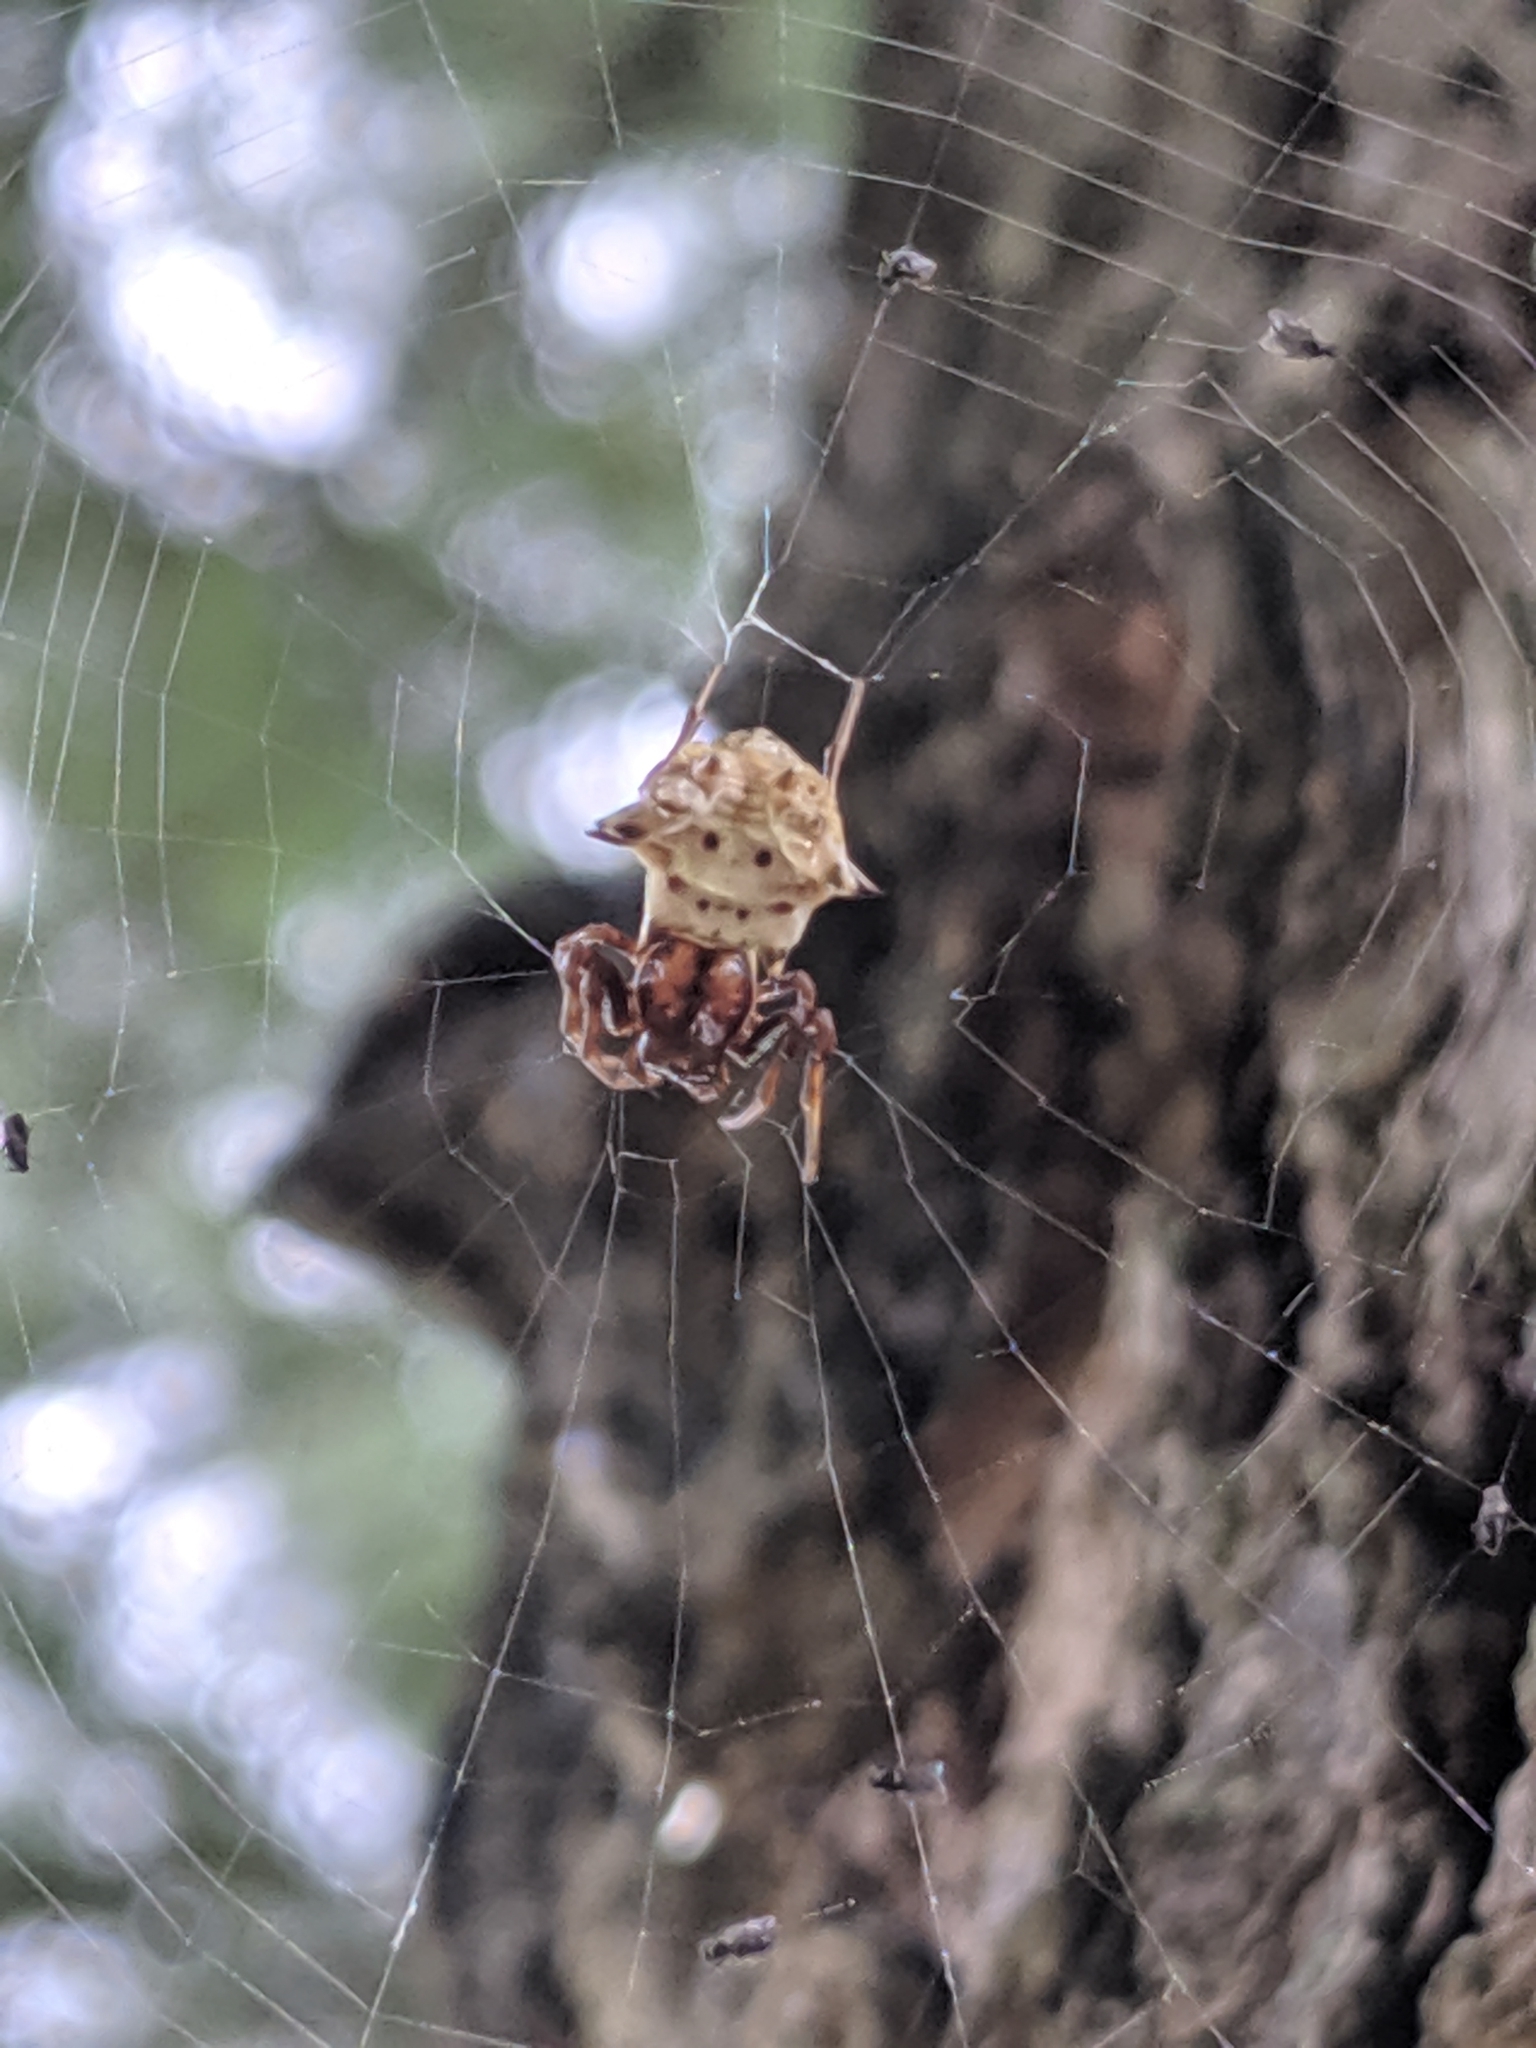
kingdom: Animalia
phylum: Arthropoda
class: Arachnida
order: Araneae
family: Araneidae
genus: Micrathena
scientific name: Micrathena gracilis
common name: Orb weavers
